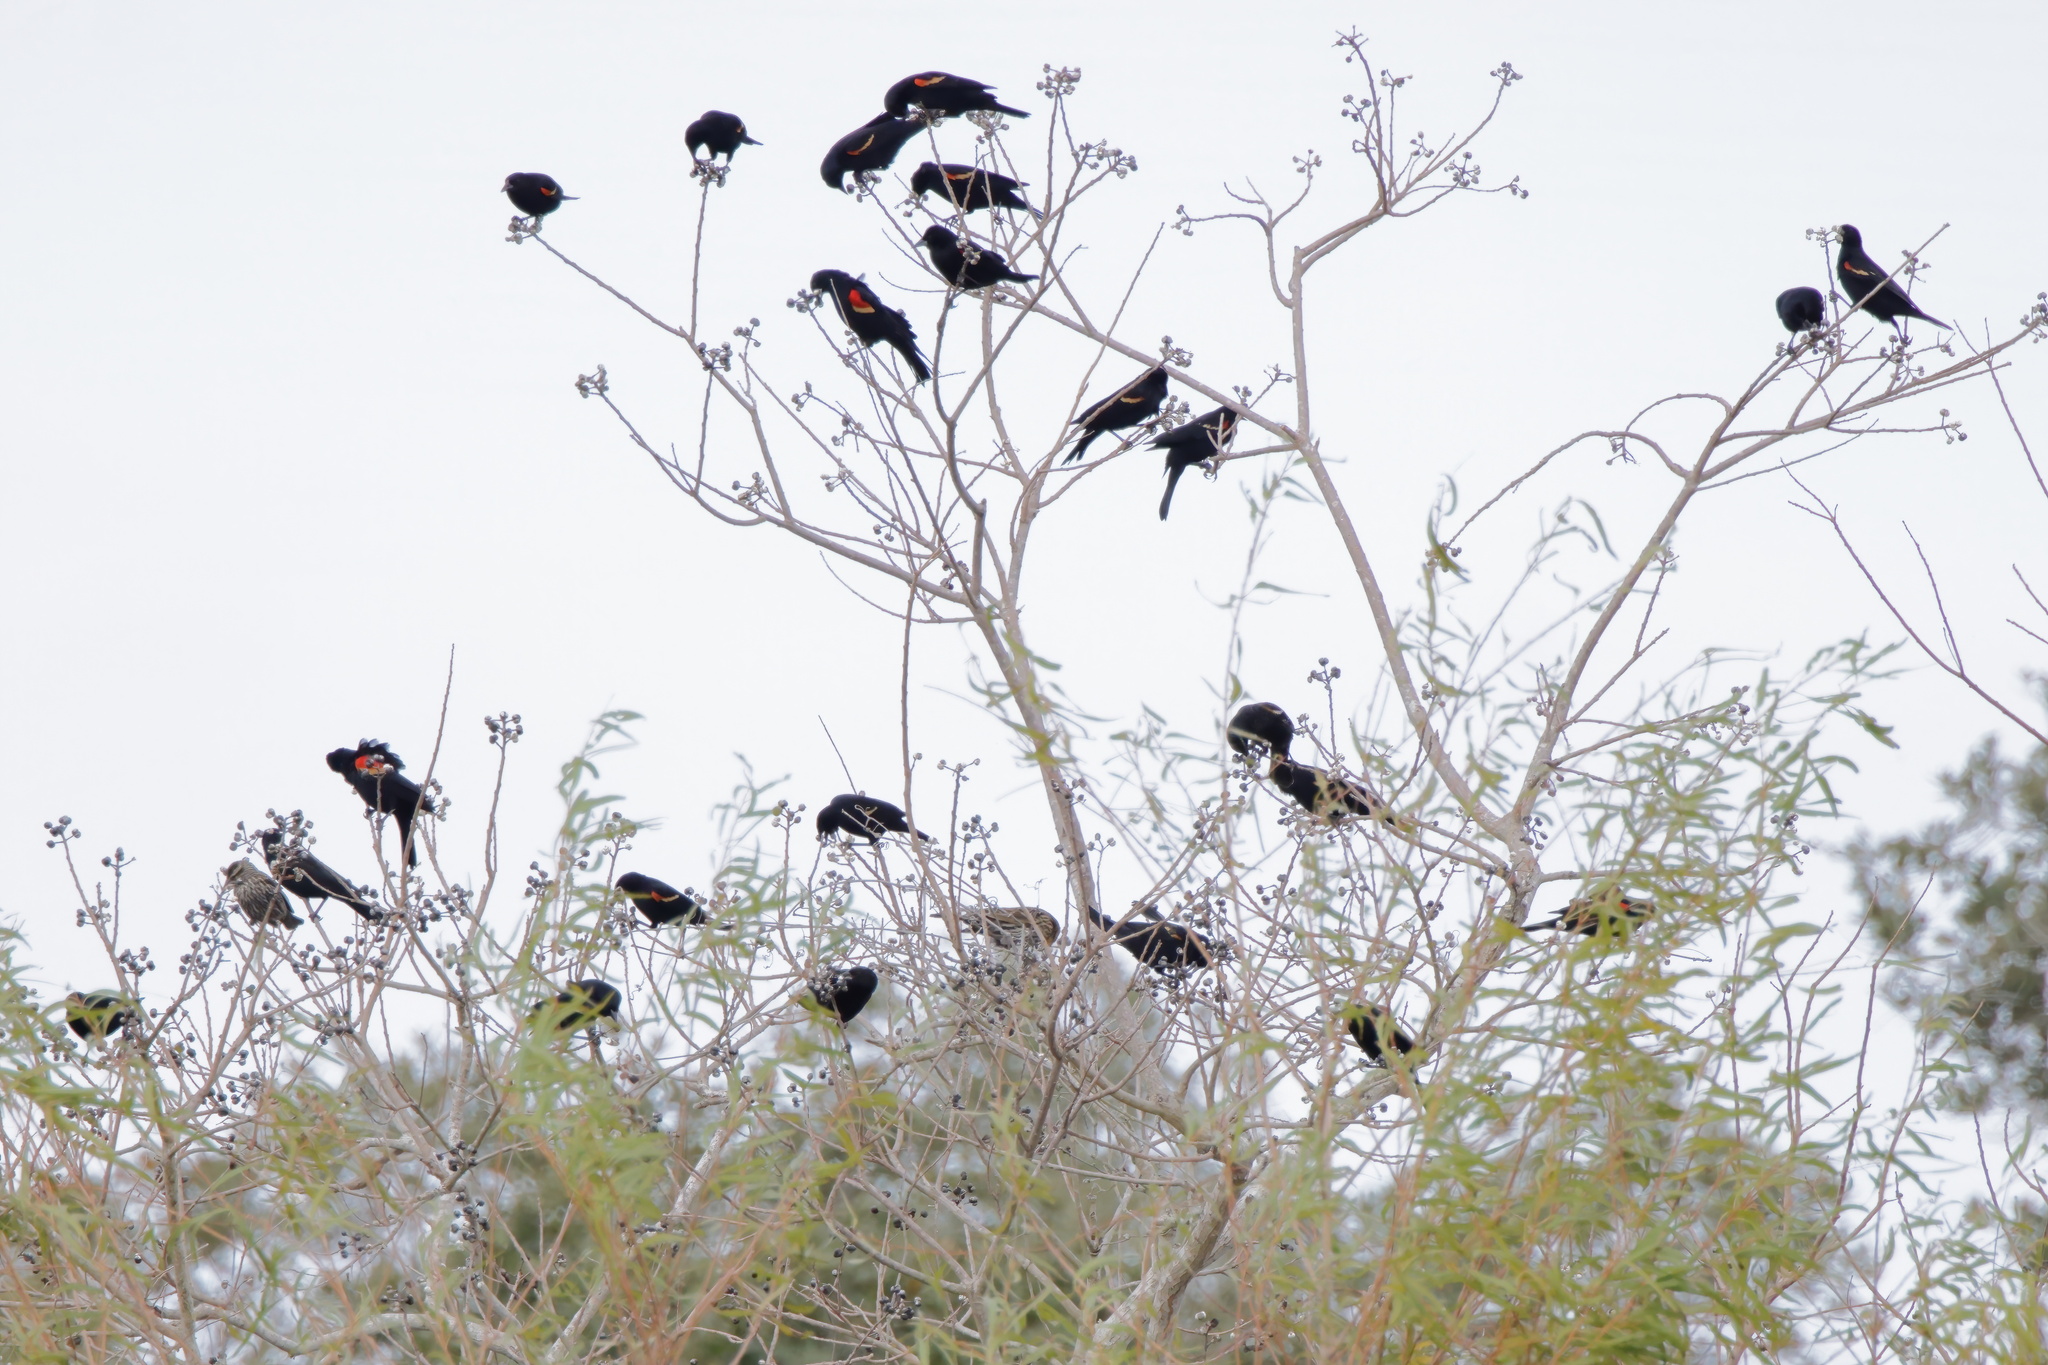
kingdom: Animalia
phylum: Chordata
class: Aves
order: Passeriformes
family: Icteridae
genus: Agelaius
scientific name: Agelaius phoeniceus
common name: Red-winged blackbird
